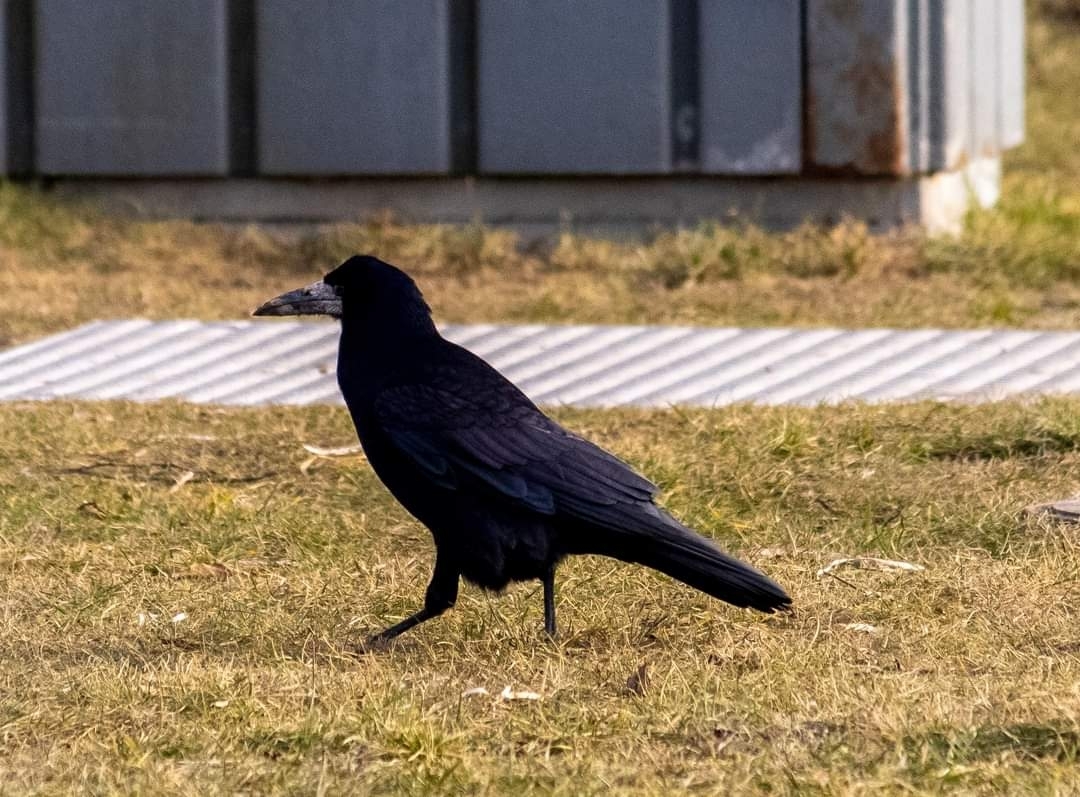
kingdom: Animalia
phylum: Chordata
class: Aves
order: Passeriformes
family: Corvidae
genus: Corvus
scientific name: Corvus frugilegus
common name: Rook
